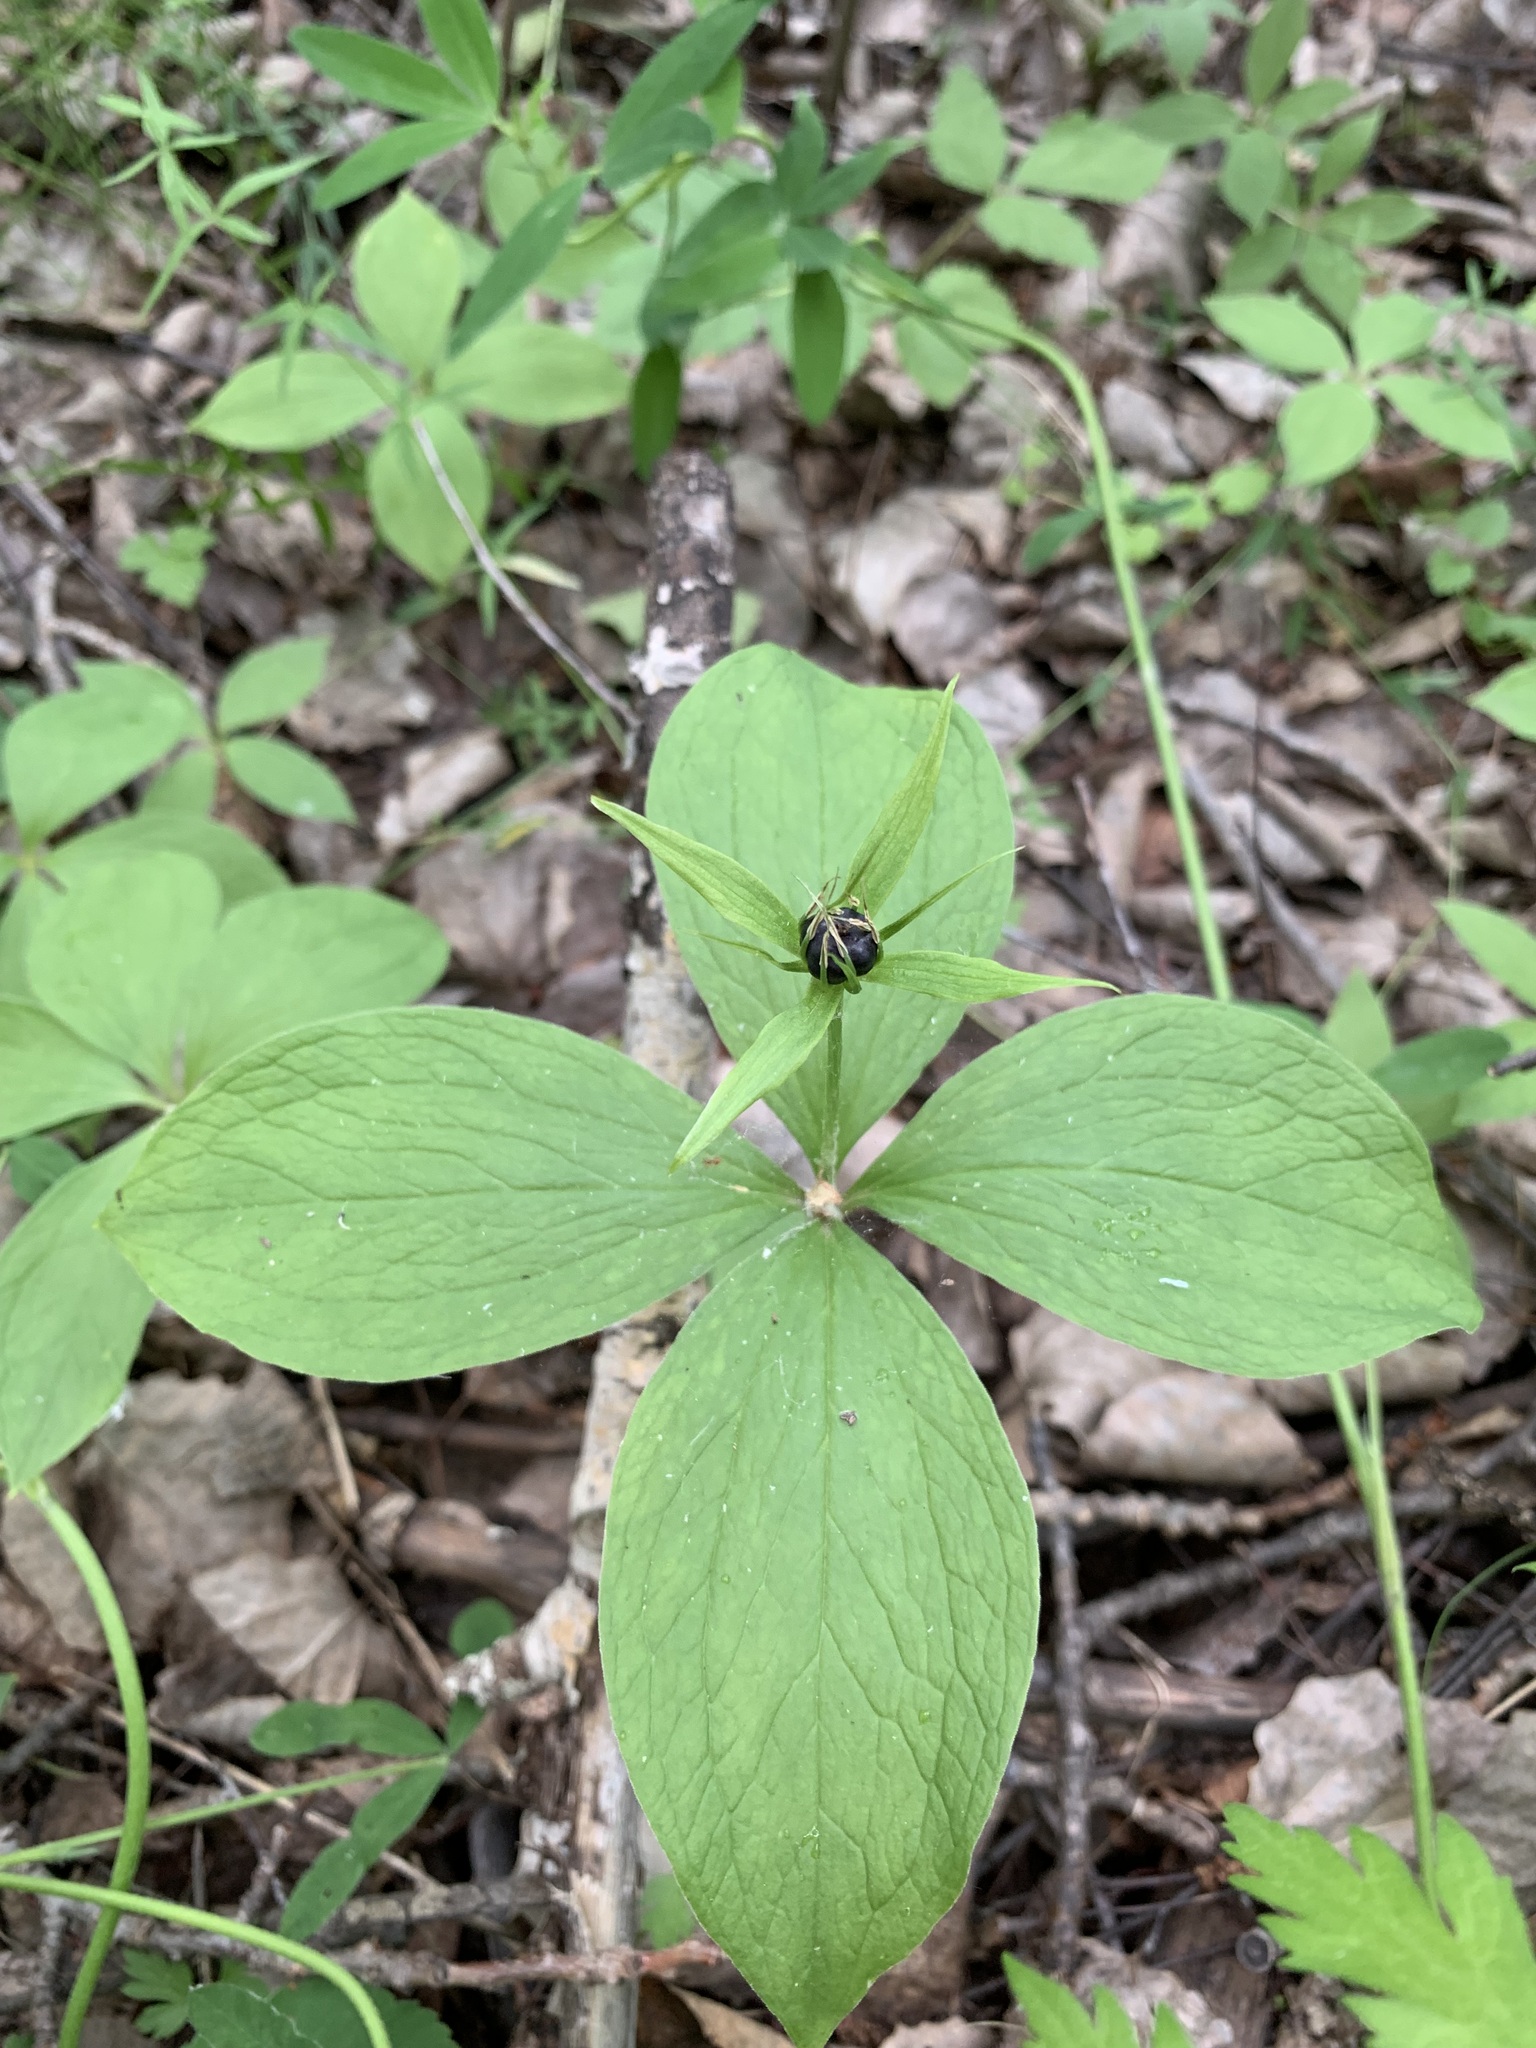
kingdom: Plantae
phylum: Tracheophyta
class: Liliopsida
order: Liliales
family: Melanthiaceae
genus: Paris
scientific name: Paris quadrifolia
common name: Herb-paris
